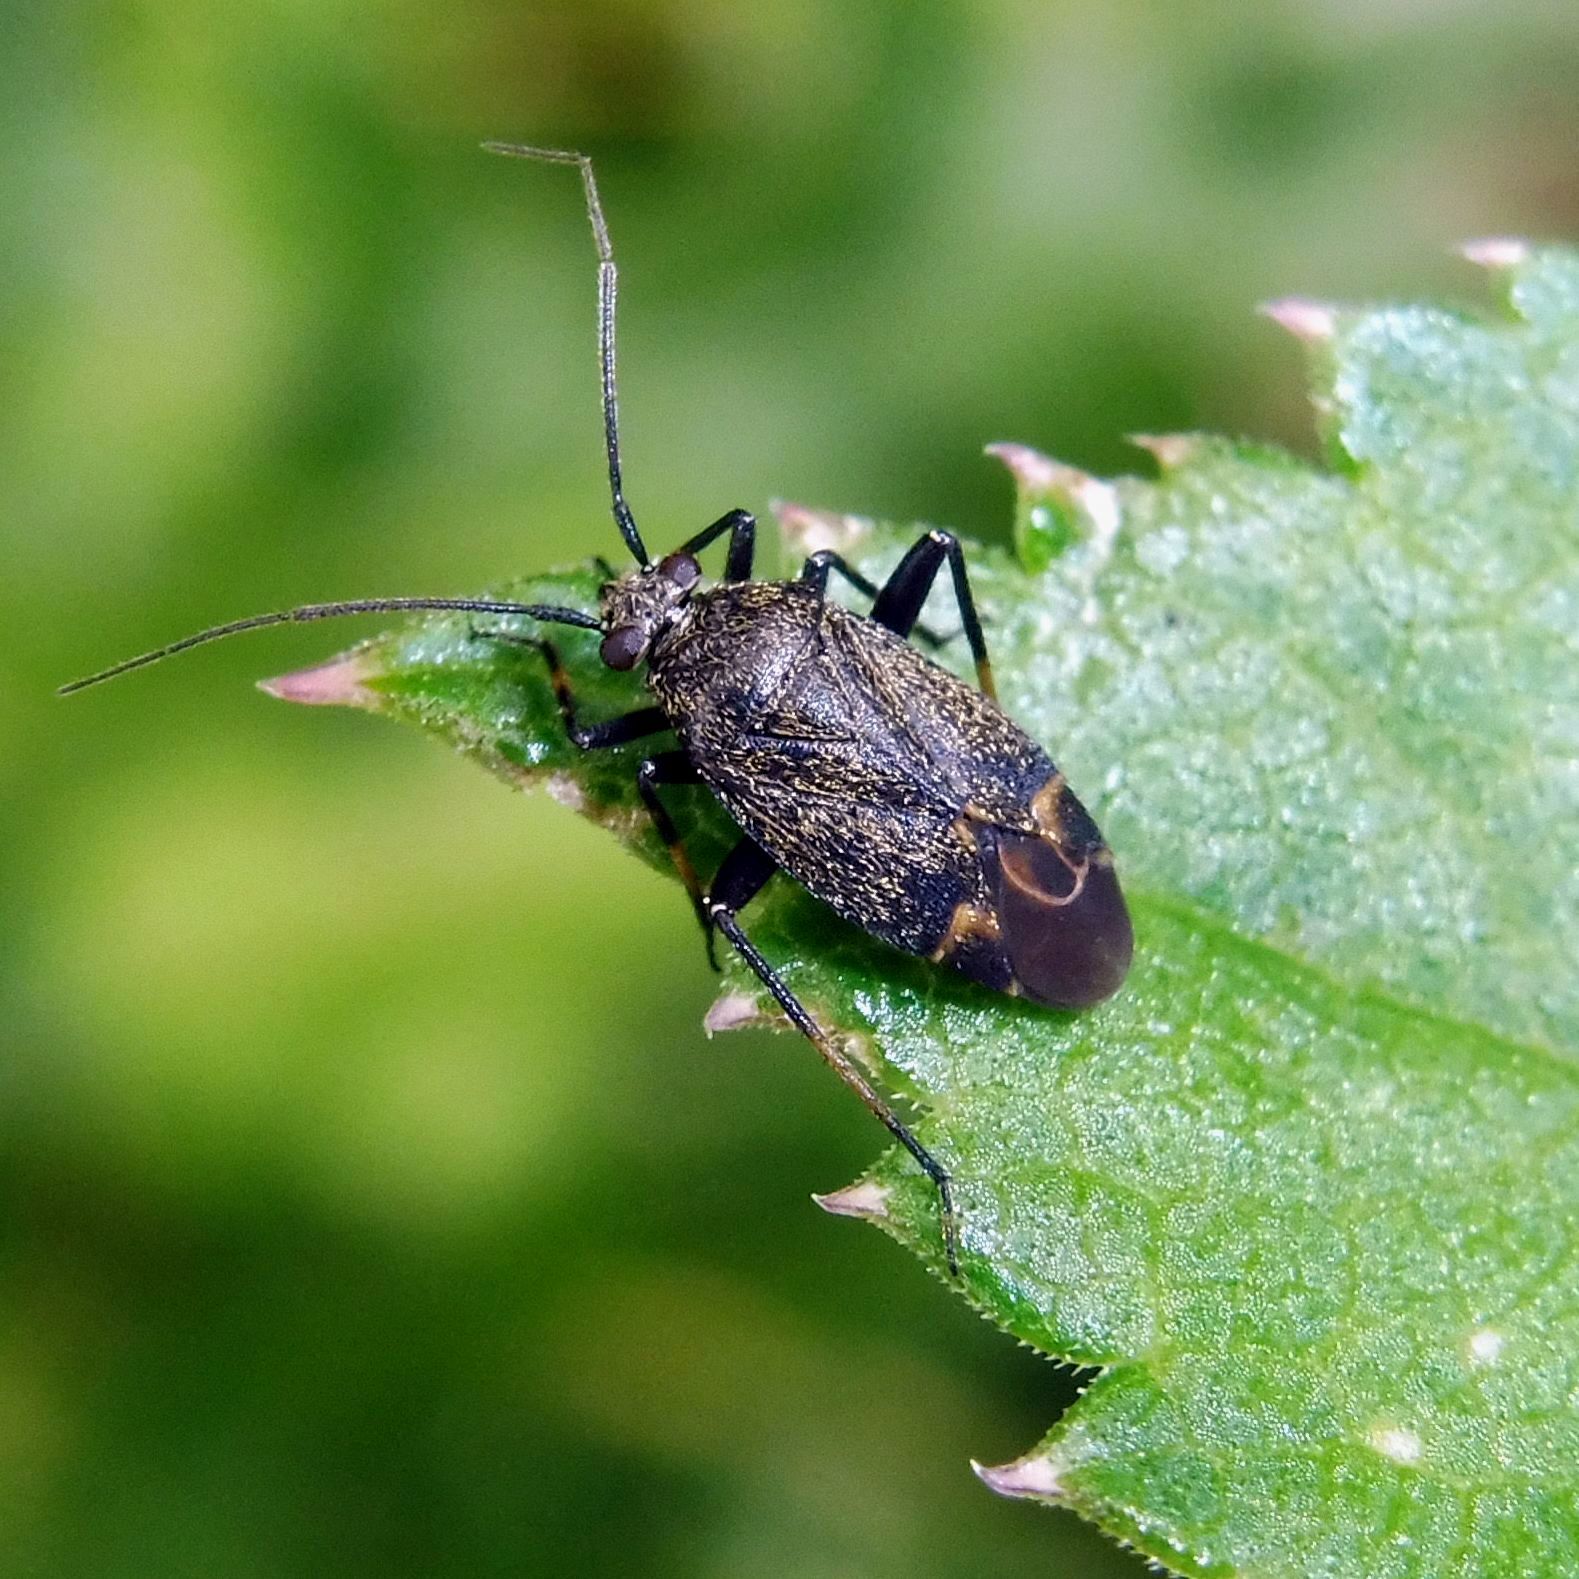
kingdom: Animalia
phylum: Arthropoda
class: Insecta
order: Hemiptera
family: Miridae
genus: Polymerus
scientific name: Polymerus nigritus
